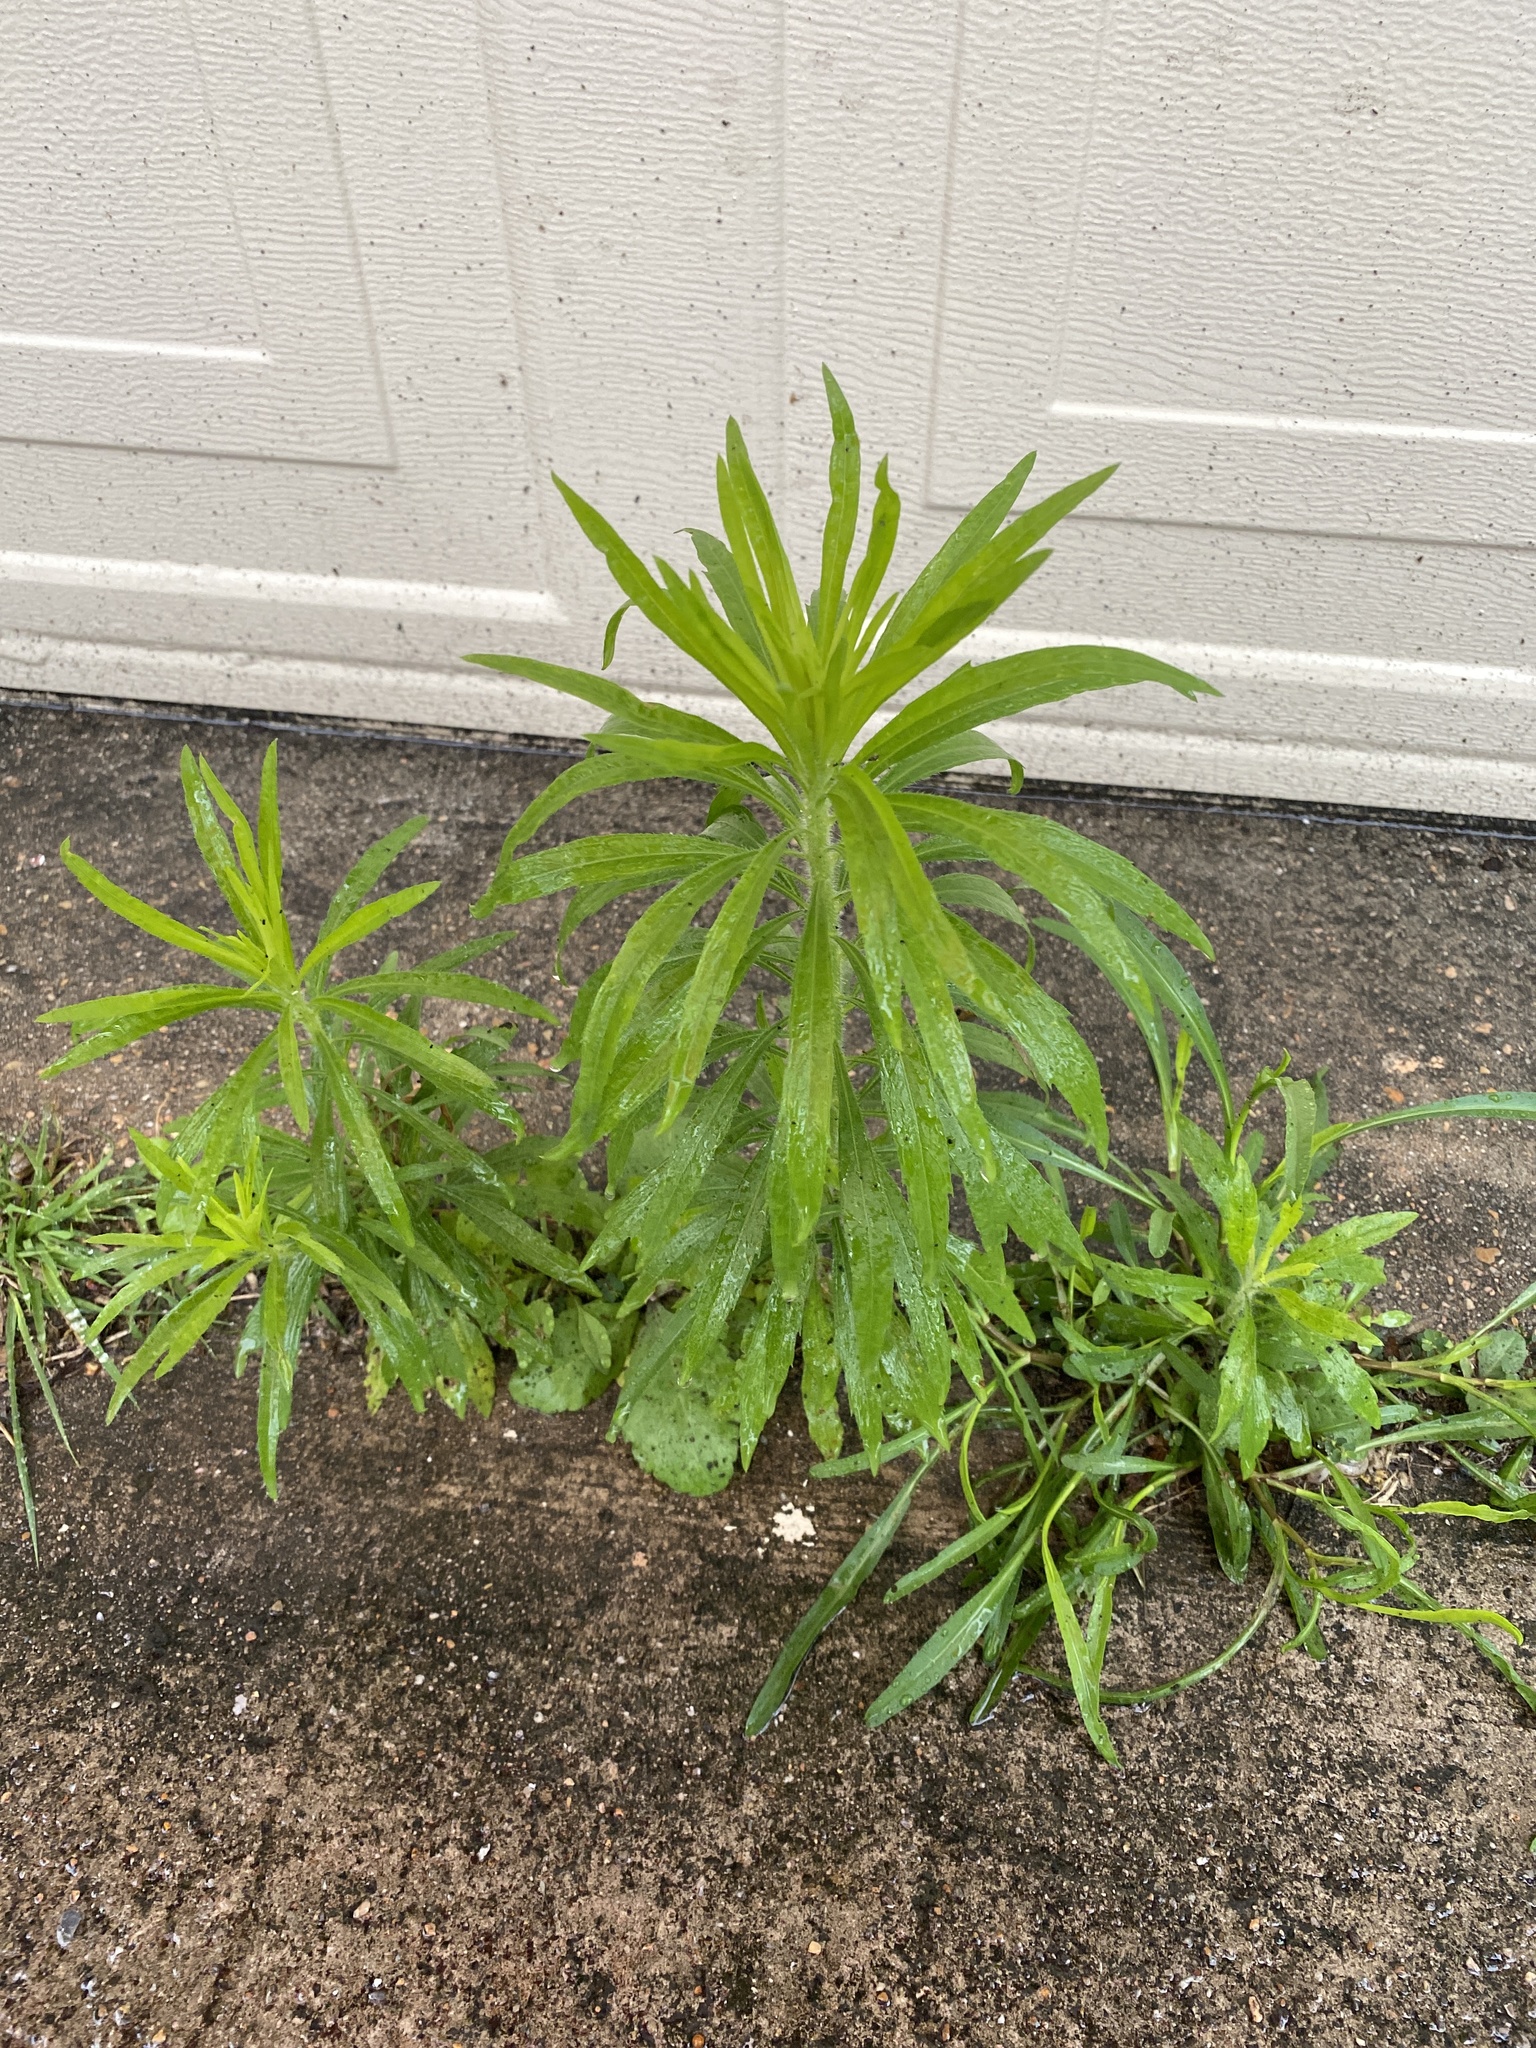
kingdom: Plantae
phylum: Tracheophyta
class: Magnoliopsida
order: Asterales
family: Asteraceae
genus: Erigeron
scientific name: Erigeron canadensis
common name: Canadian fleabane
